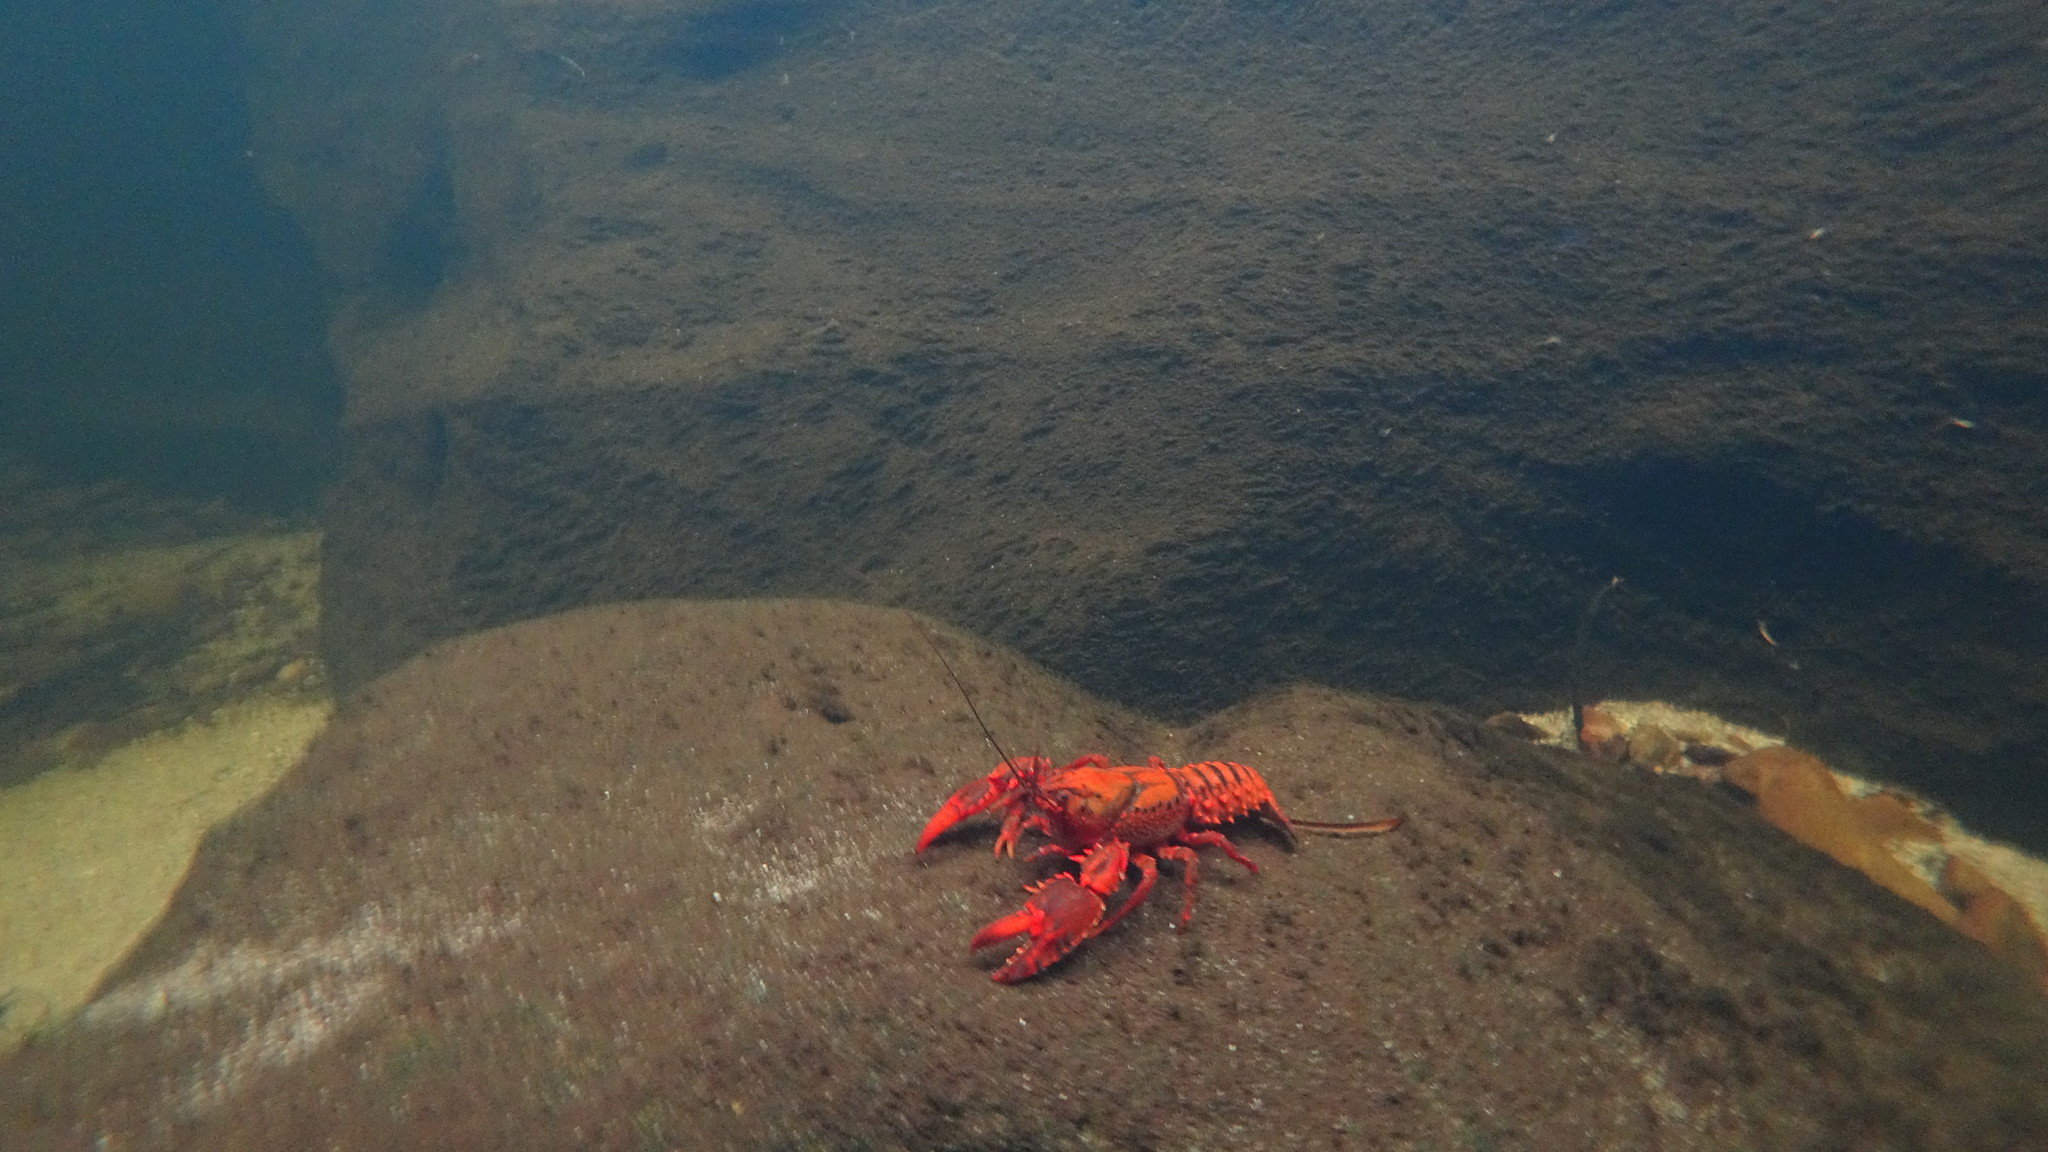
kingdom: Animalia
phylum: Arthropoda
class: Malacostraca
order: Decapoda
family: Parastacidae
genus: Euastacus
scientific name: Euastacus australasiensis
